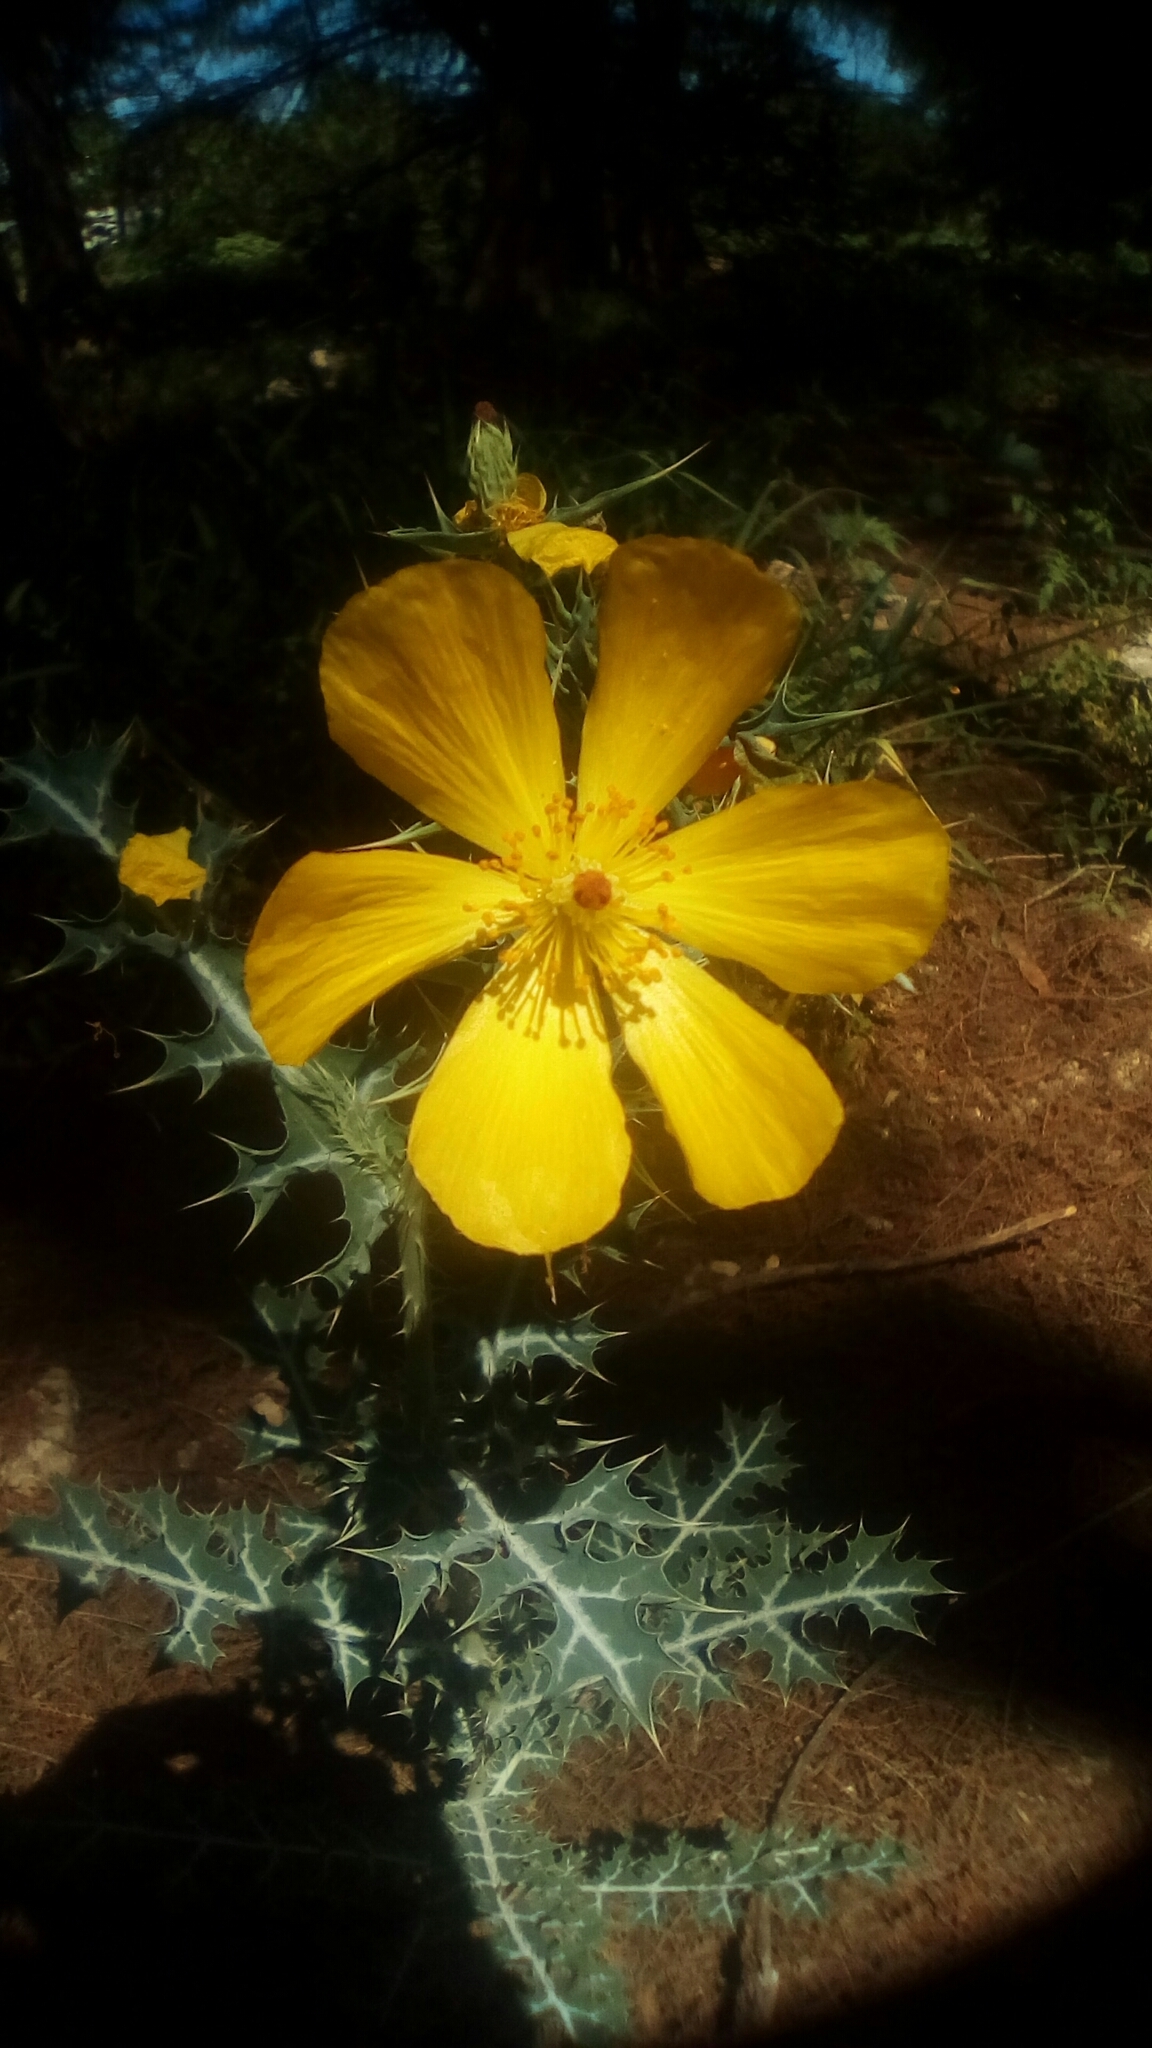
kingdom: Plantae
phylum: Tracheophyta
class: Magnoliopsida
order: Ranunculales
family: Papaveraceae
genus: Argemone
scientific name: Argemone mexicana
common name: Mexican poppy
